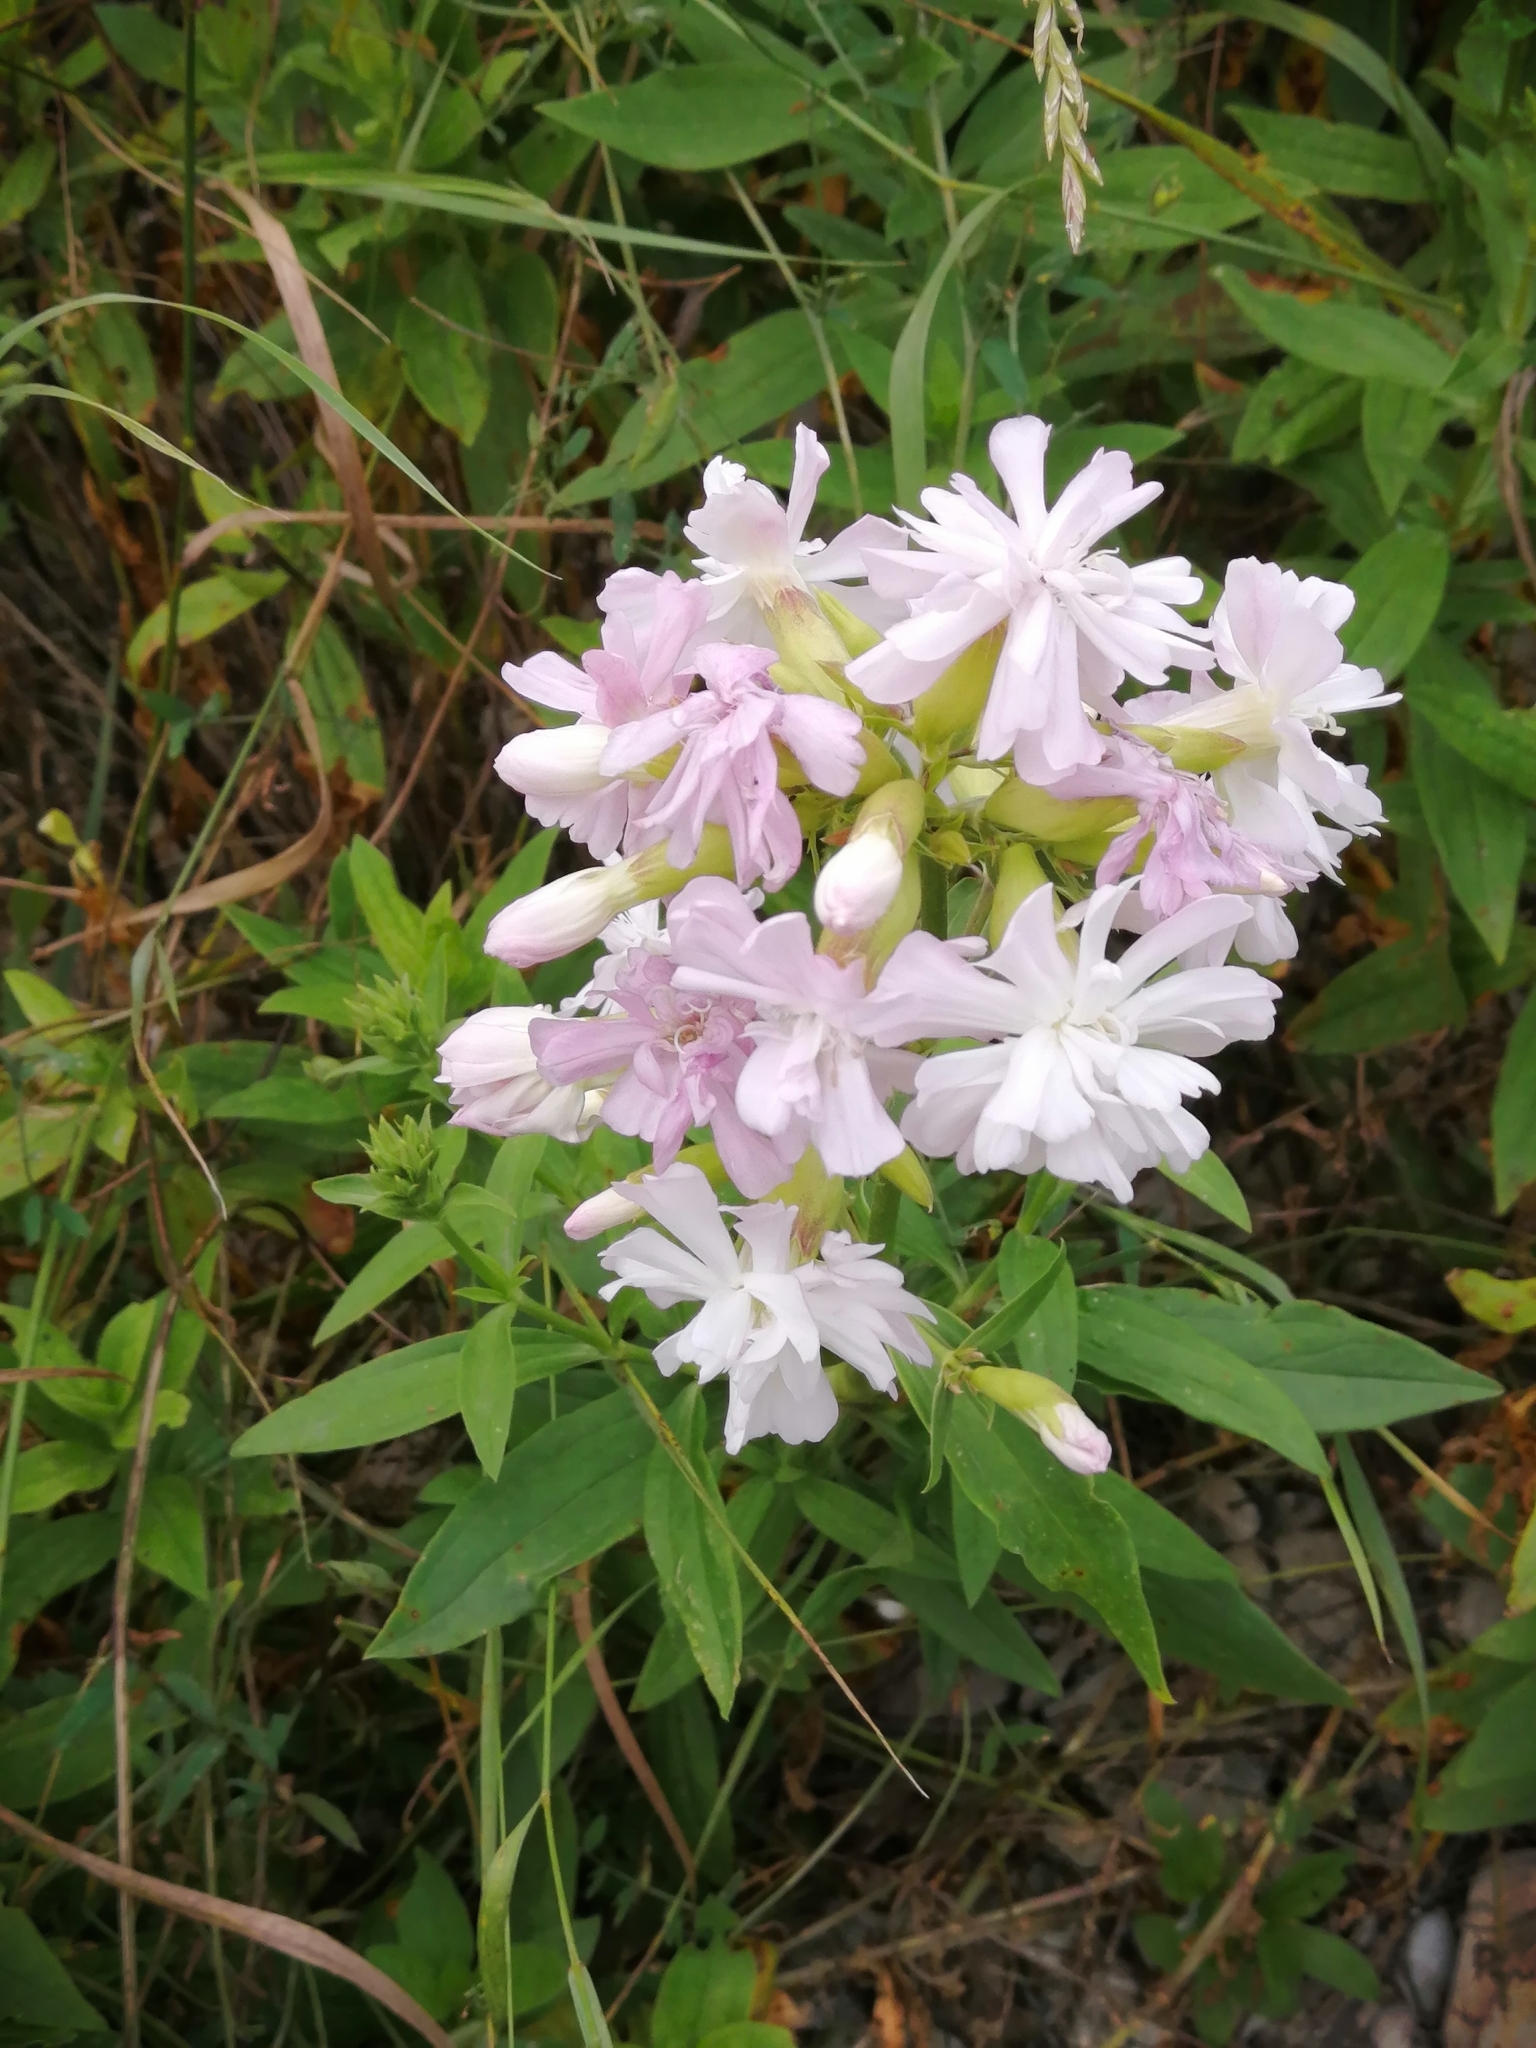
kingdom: Plantae
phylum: Tracheophyta
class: Magnoliopsida
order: Caryophyllales
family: Caryophyllaceae
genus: Saponaria
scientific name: Saponaria officinalis
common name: Soapwort
